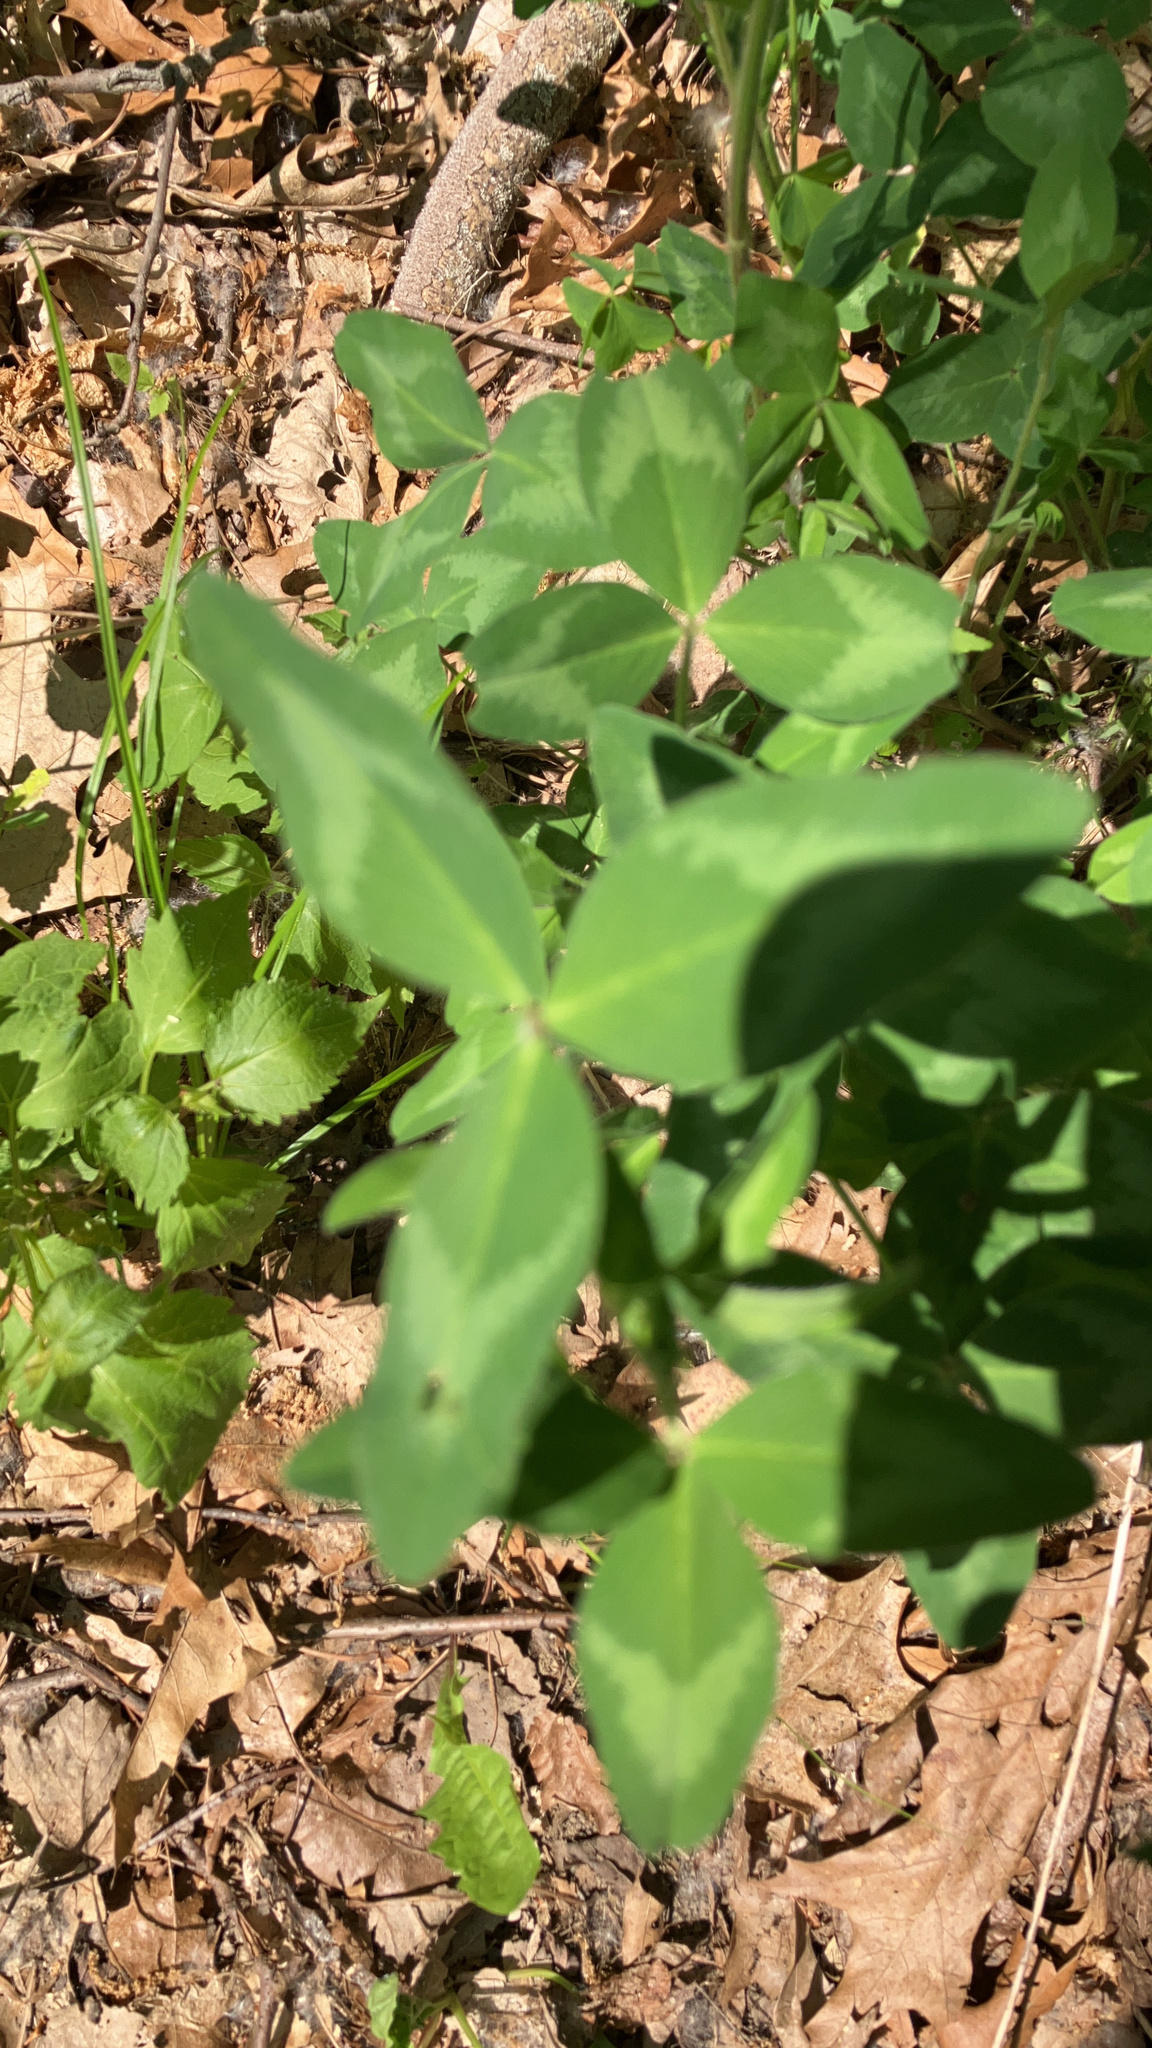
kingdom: Plantae
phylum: Tracheophyta
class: Magnoliopsida
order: Fabales
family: Fabaceae
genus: Trifolium
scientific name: Trifolium pratense
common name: Red clover
